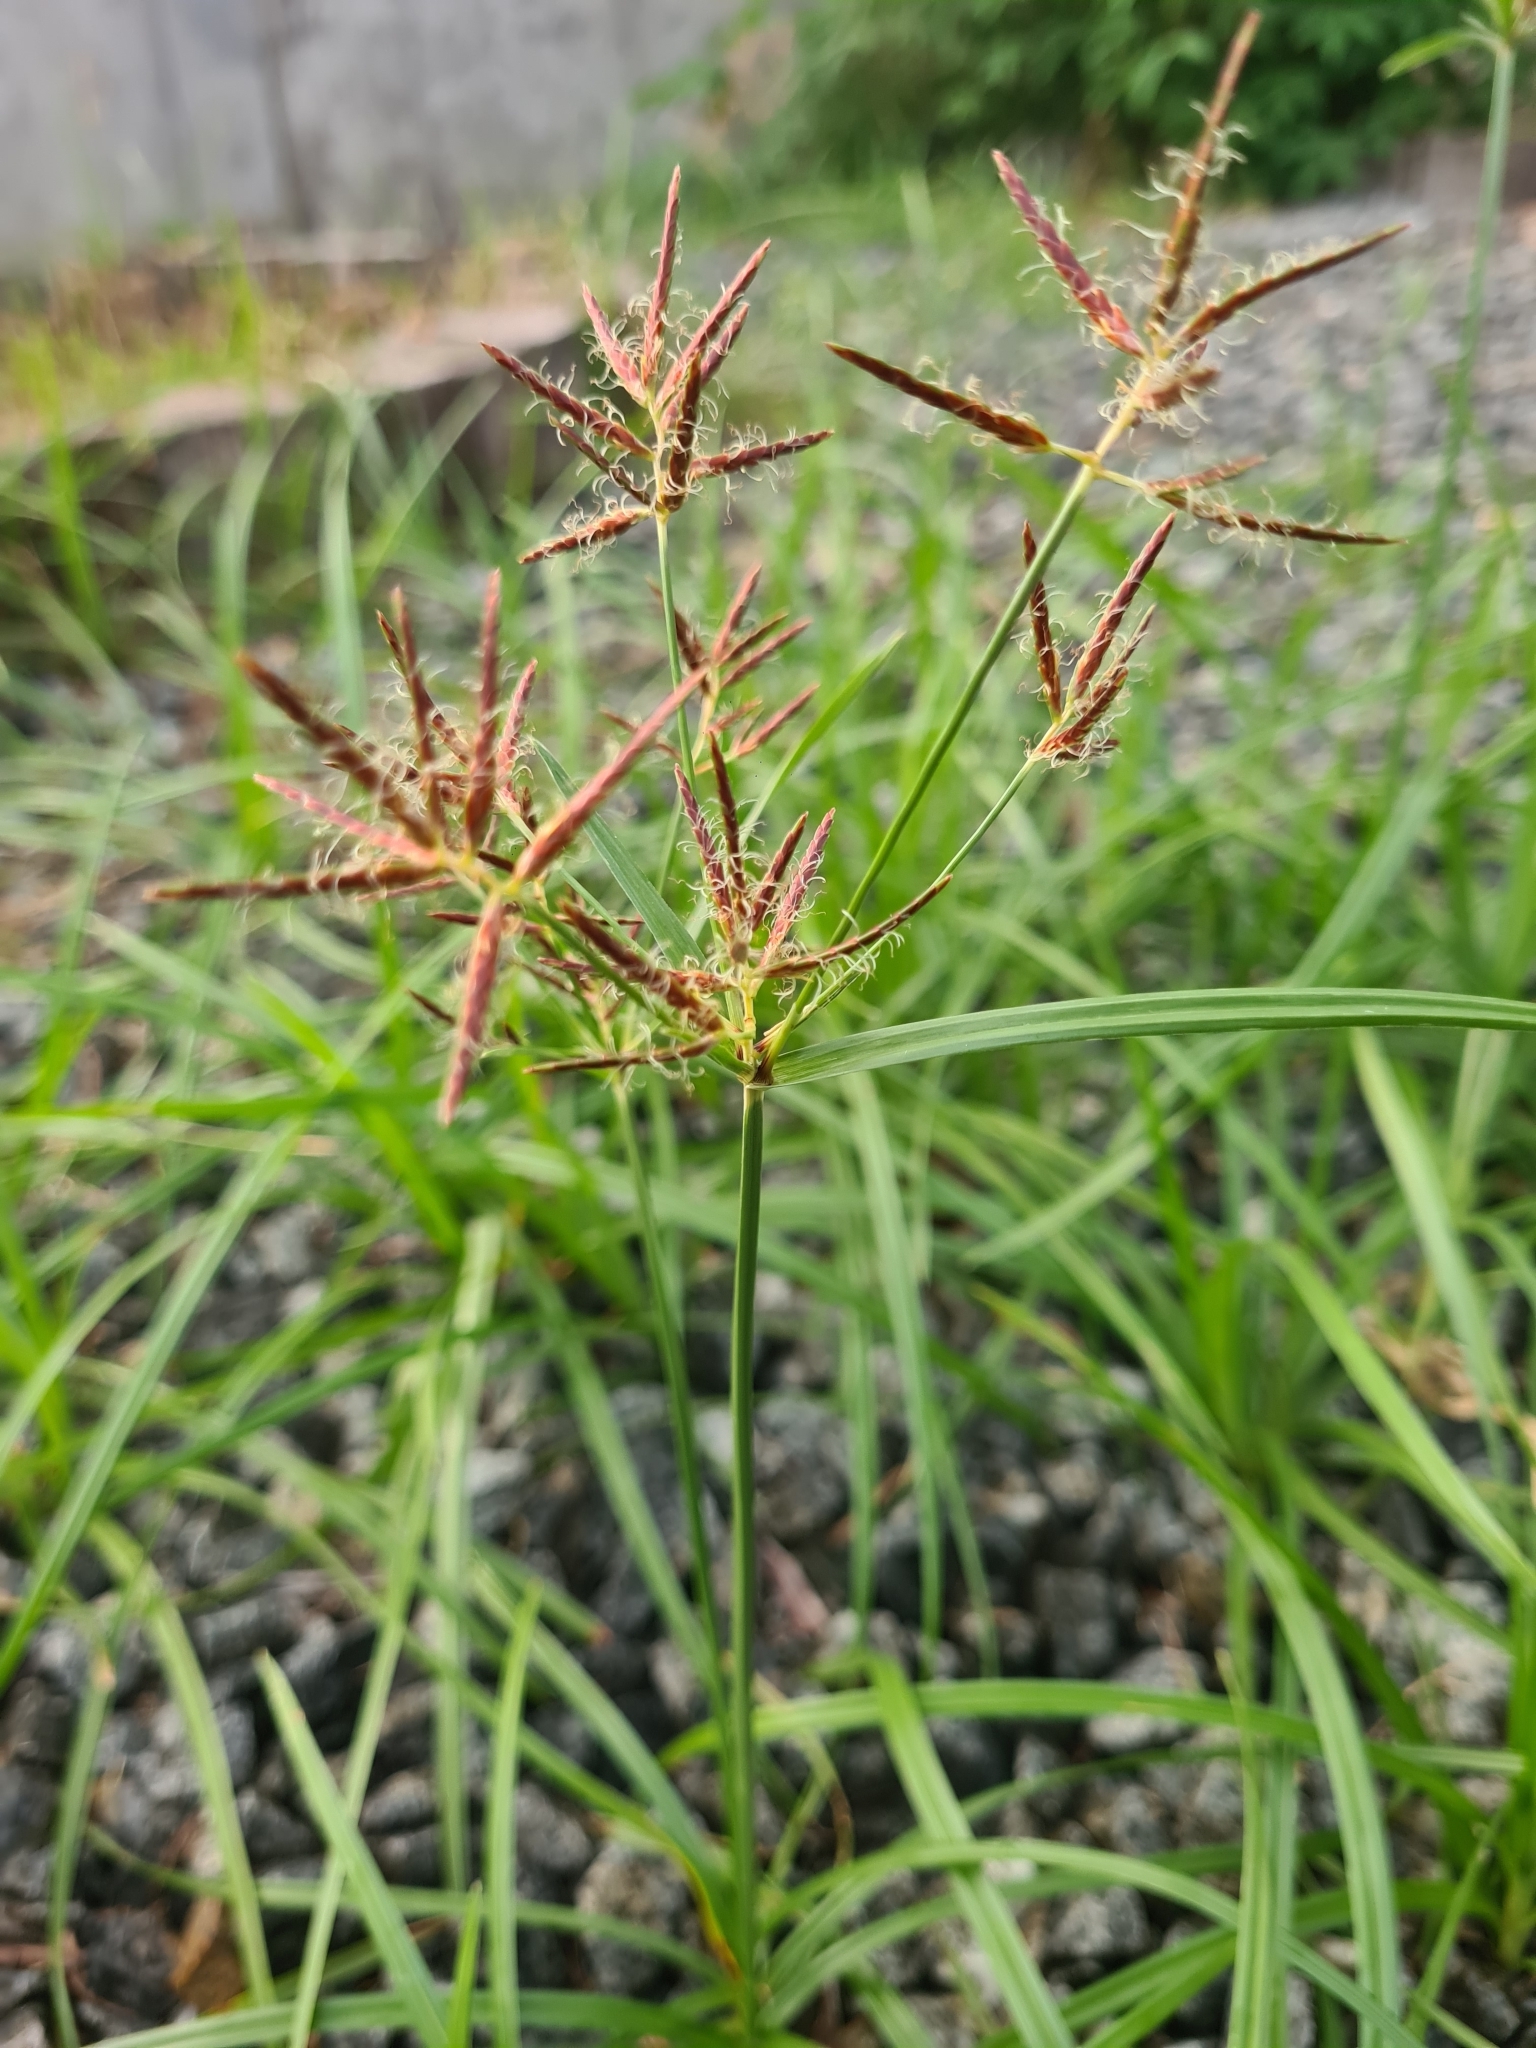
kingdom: Plantae
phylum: Tracheophyta
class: Liliopsida
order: Poales
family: Cyperaceae
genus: Cyperus
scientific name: Cyperus rotundus
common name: Nutgrass
